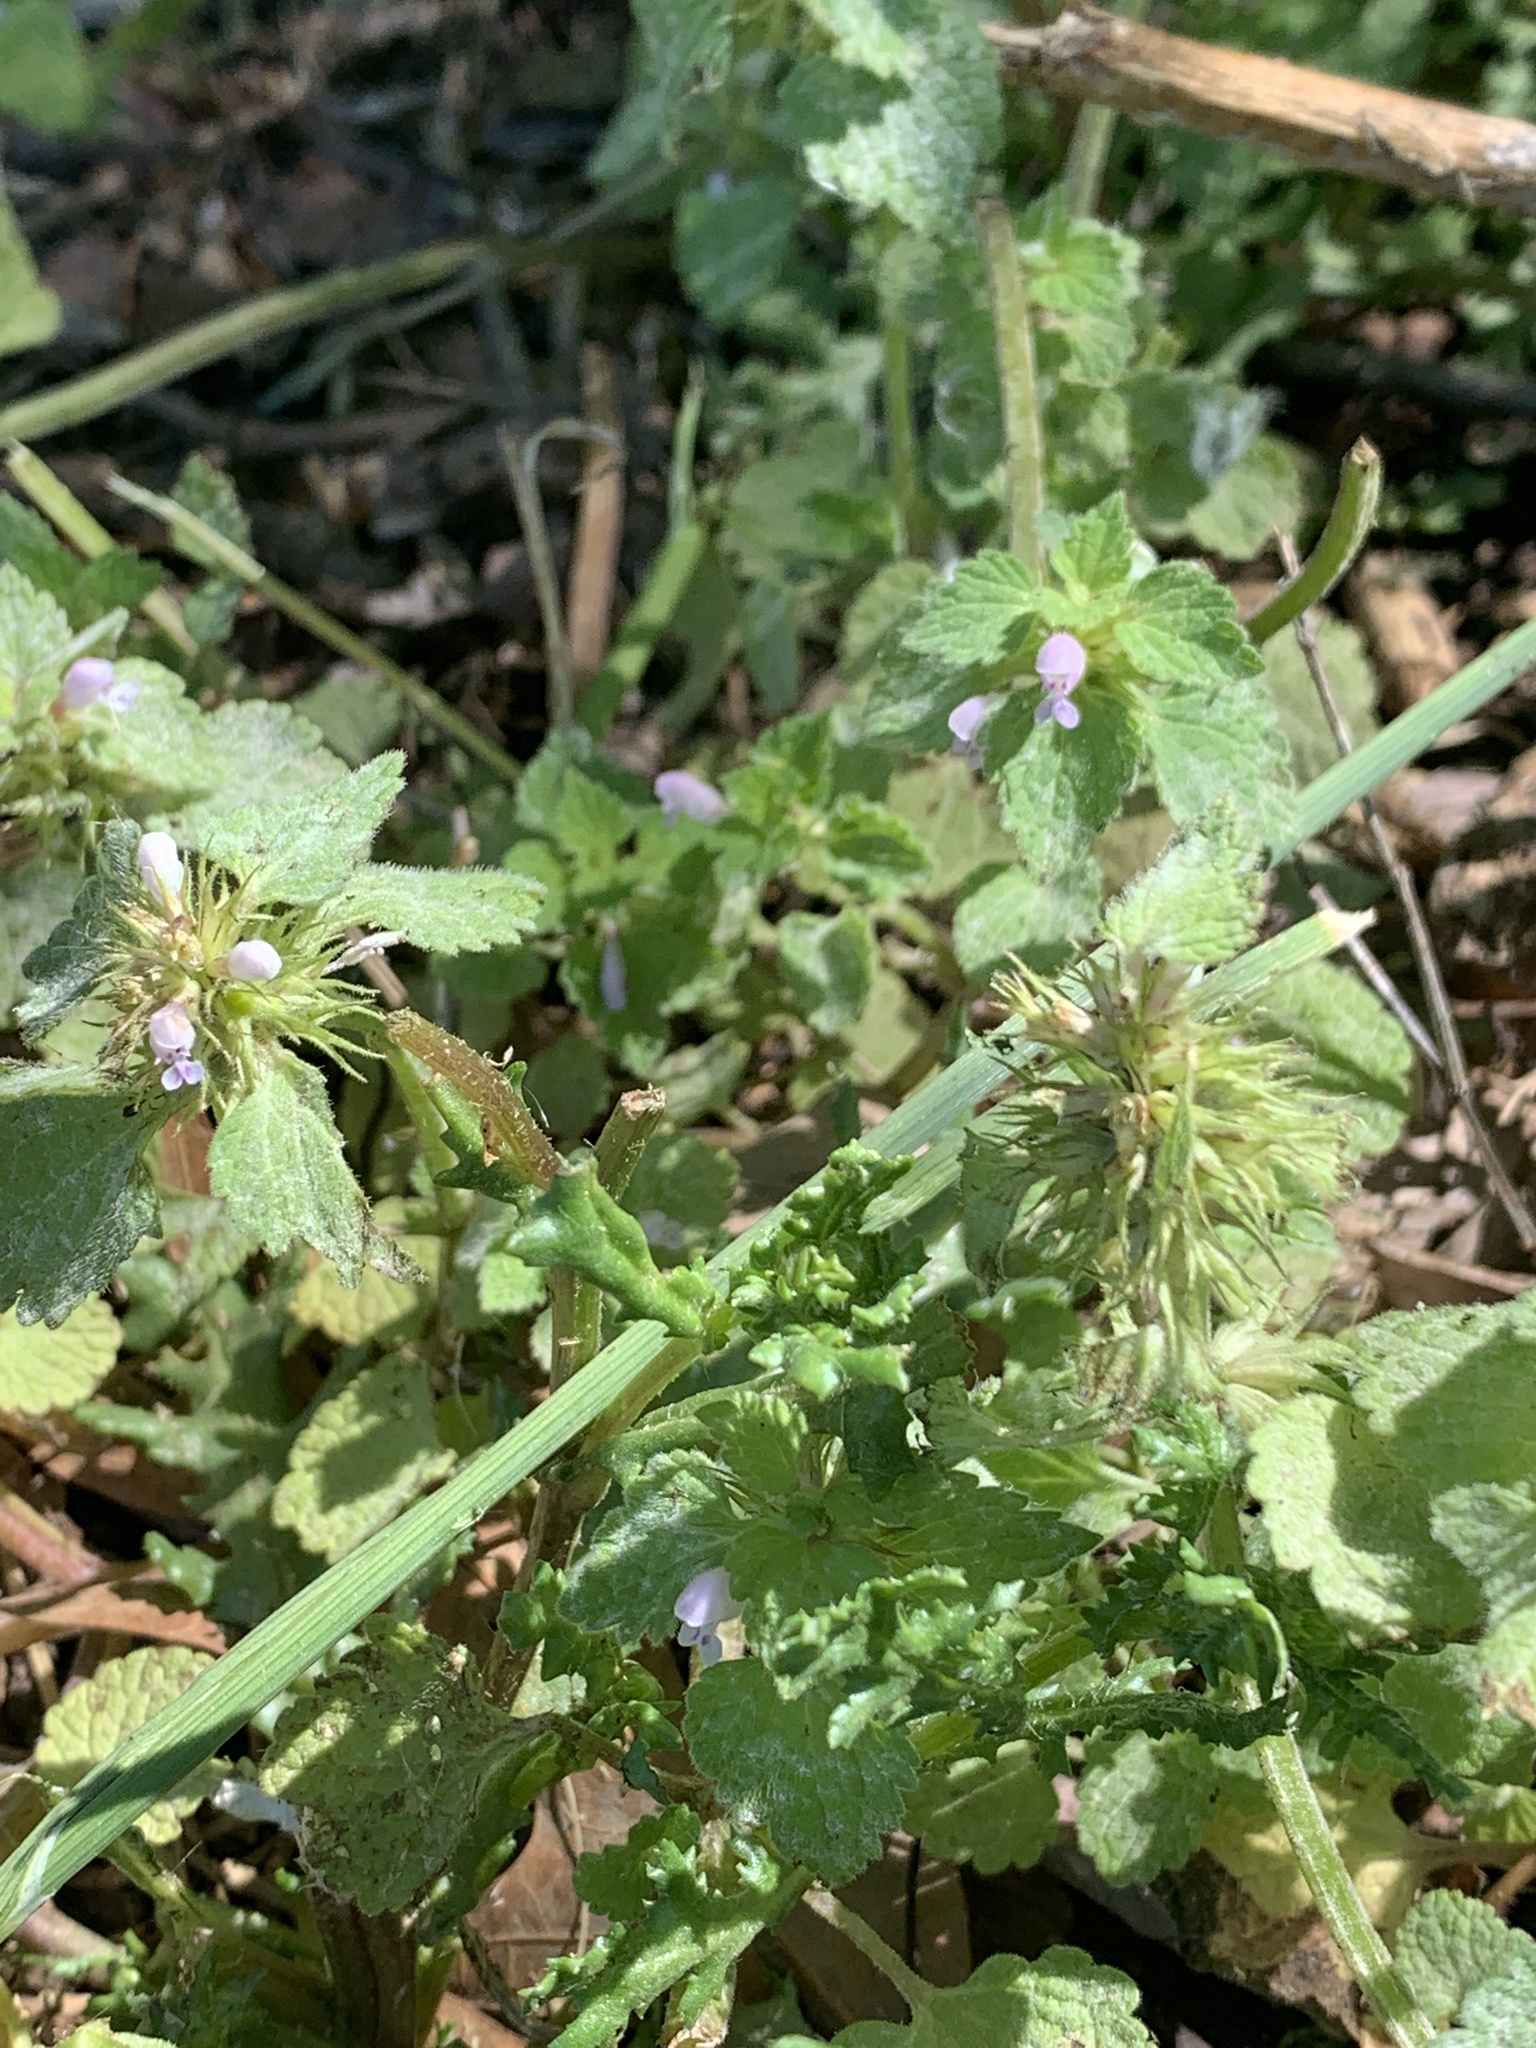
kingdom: Plantae
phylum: Tracheophyta
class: Magnoliopsida
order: Lamiales
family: Lamiaceae
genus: Lamium
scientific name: Lamium purpureum
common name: Red dead-nettle
